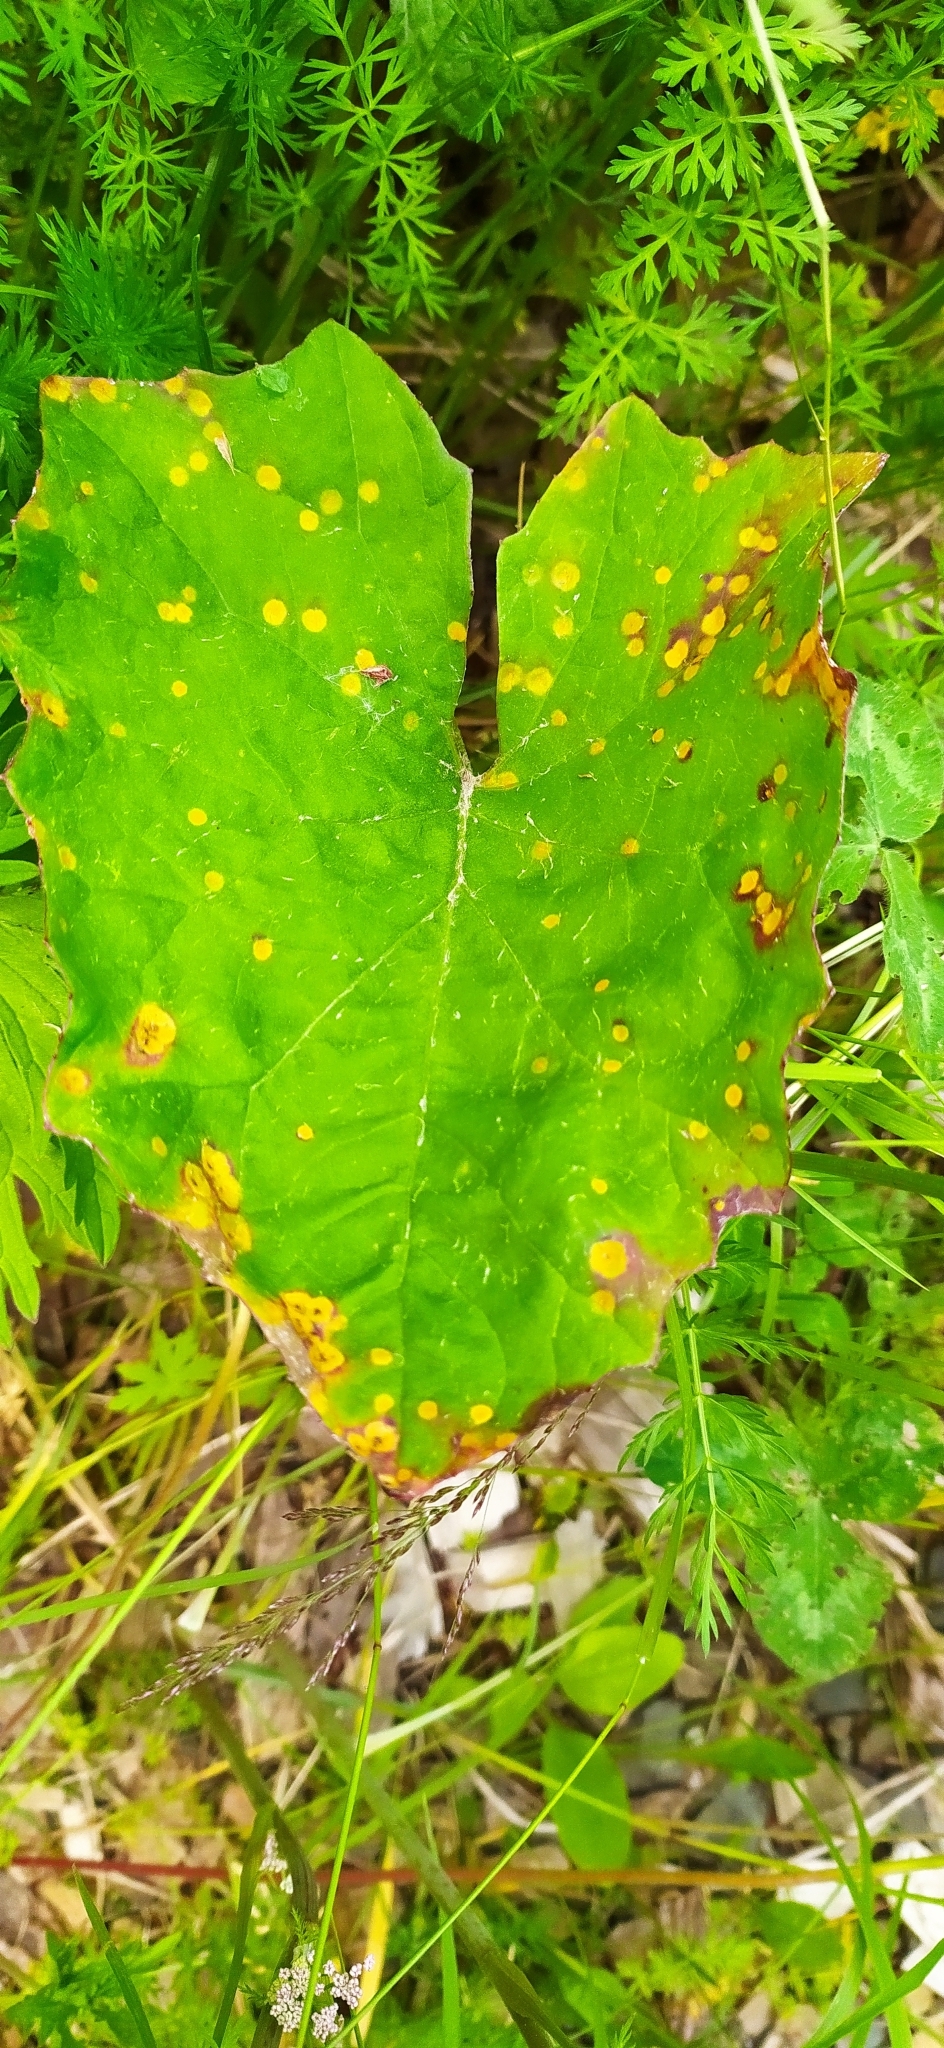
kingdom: Plantae
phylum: Tracheophyta
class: Magnoliopsida
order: Asterales
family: Asteraceae
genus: Tussilago
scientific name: Tussilago farfara
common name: Coltsfoot
